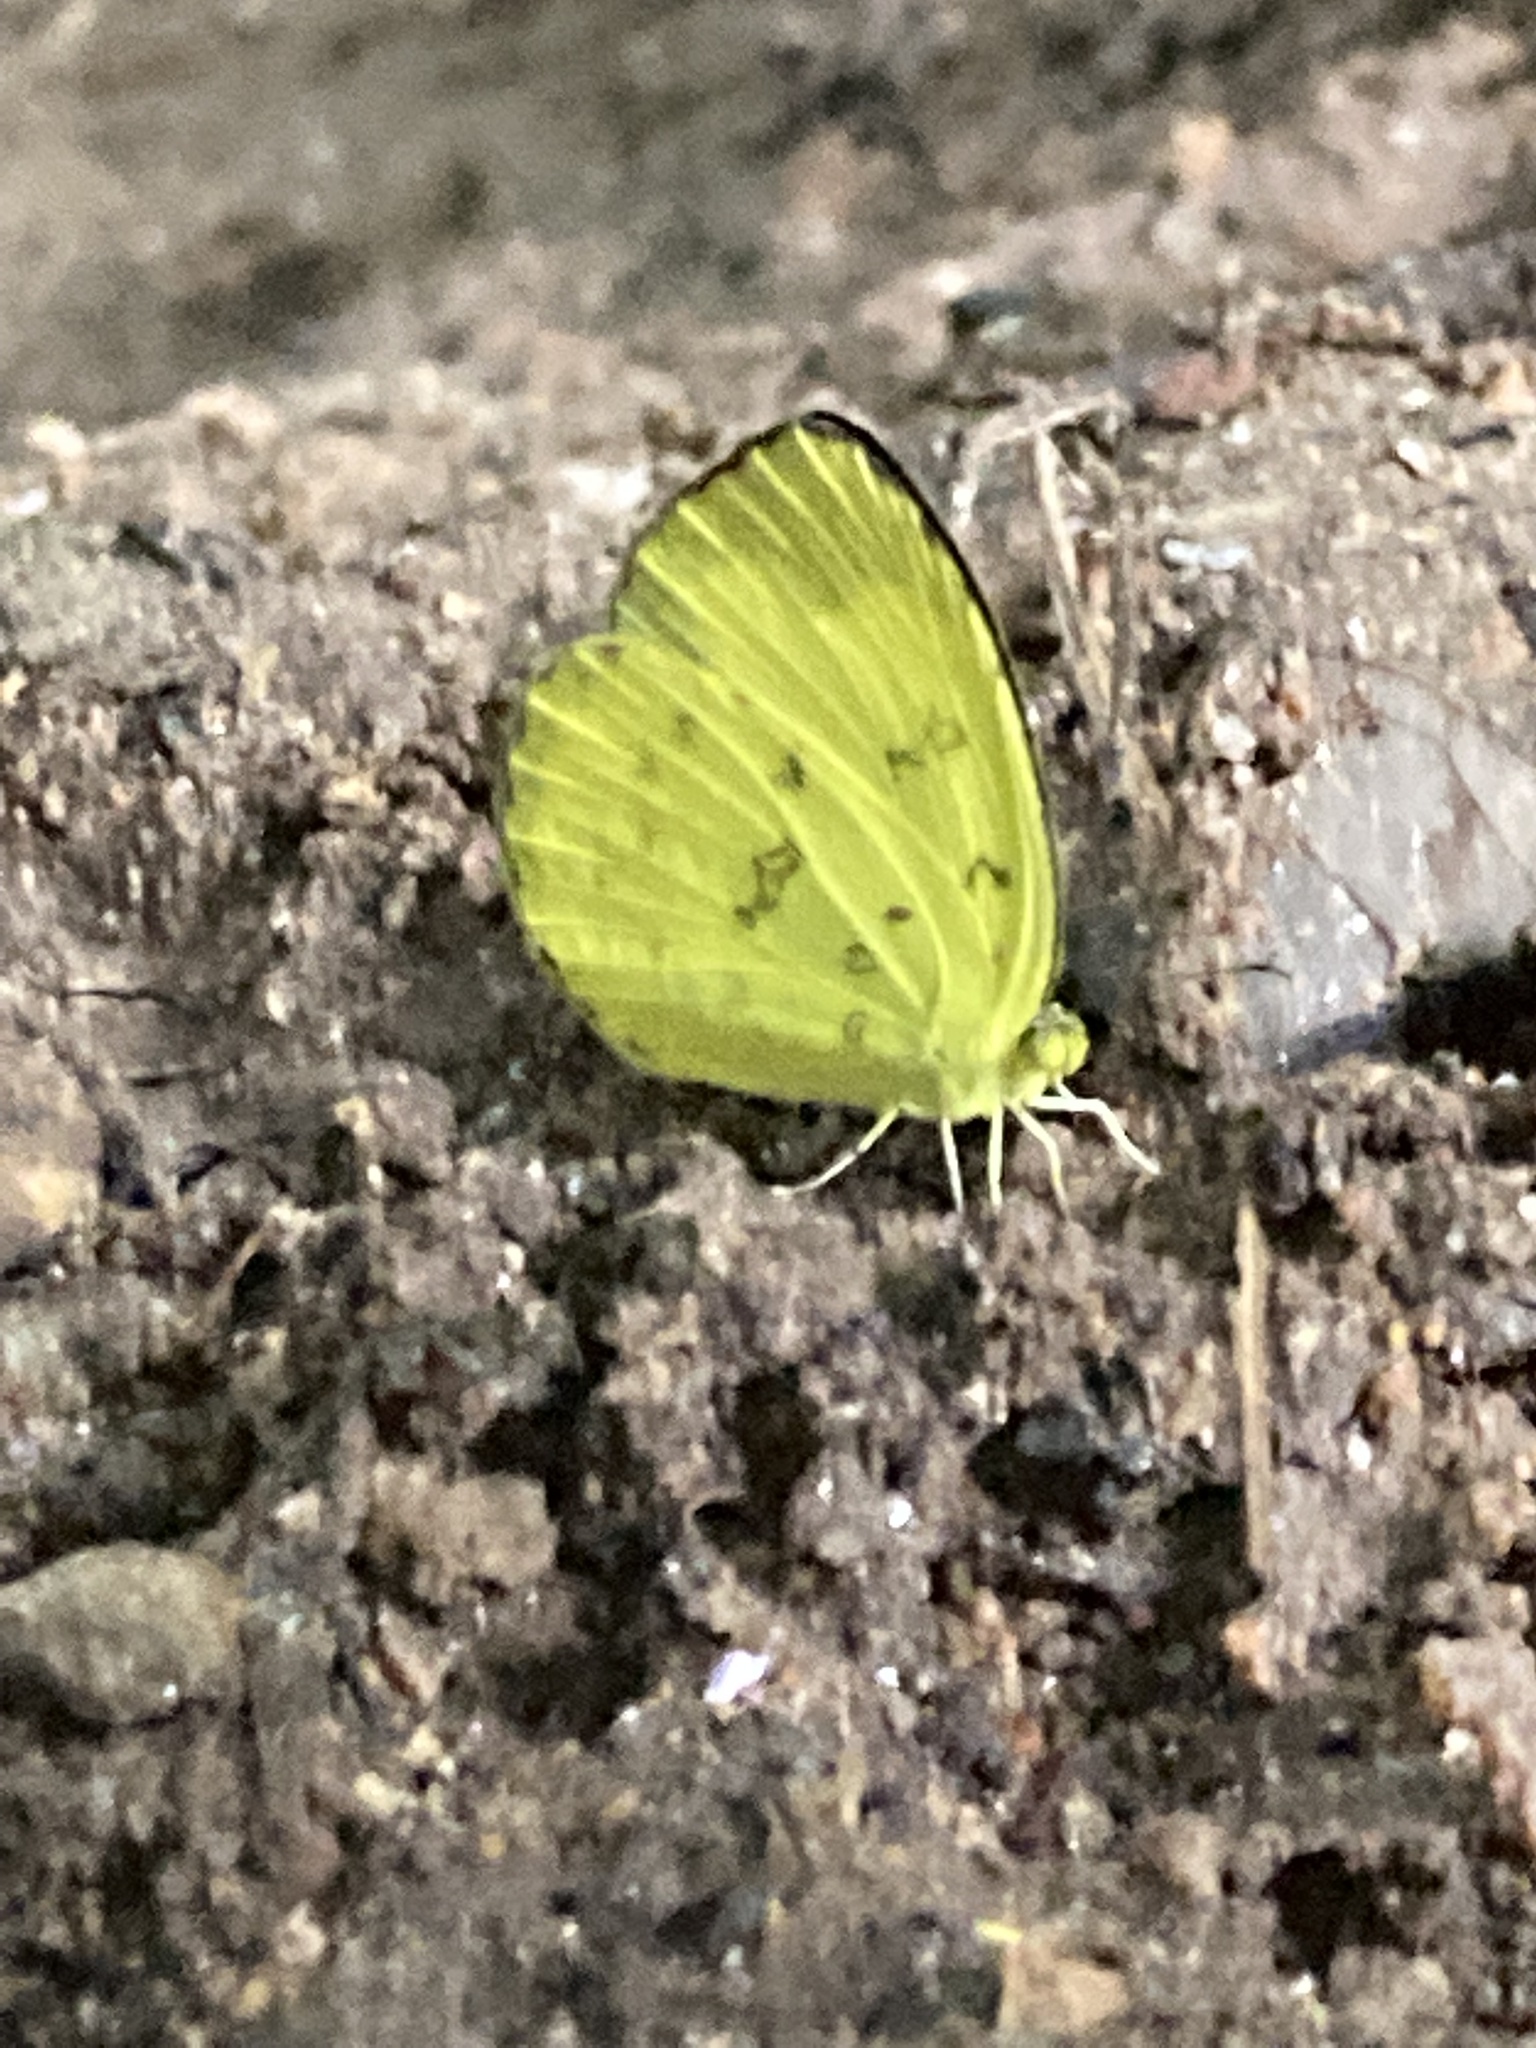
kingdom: Animalia
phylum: Arthropoda
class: Insecta
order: Lepidoptera
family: Pieridae
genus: Eurema
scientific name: Eurema blanda
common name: Three-spot grass yellow
